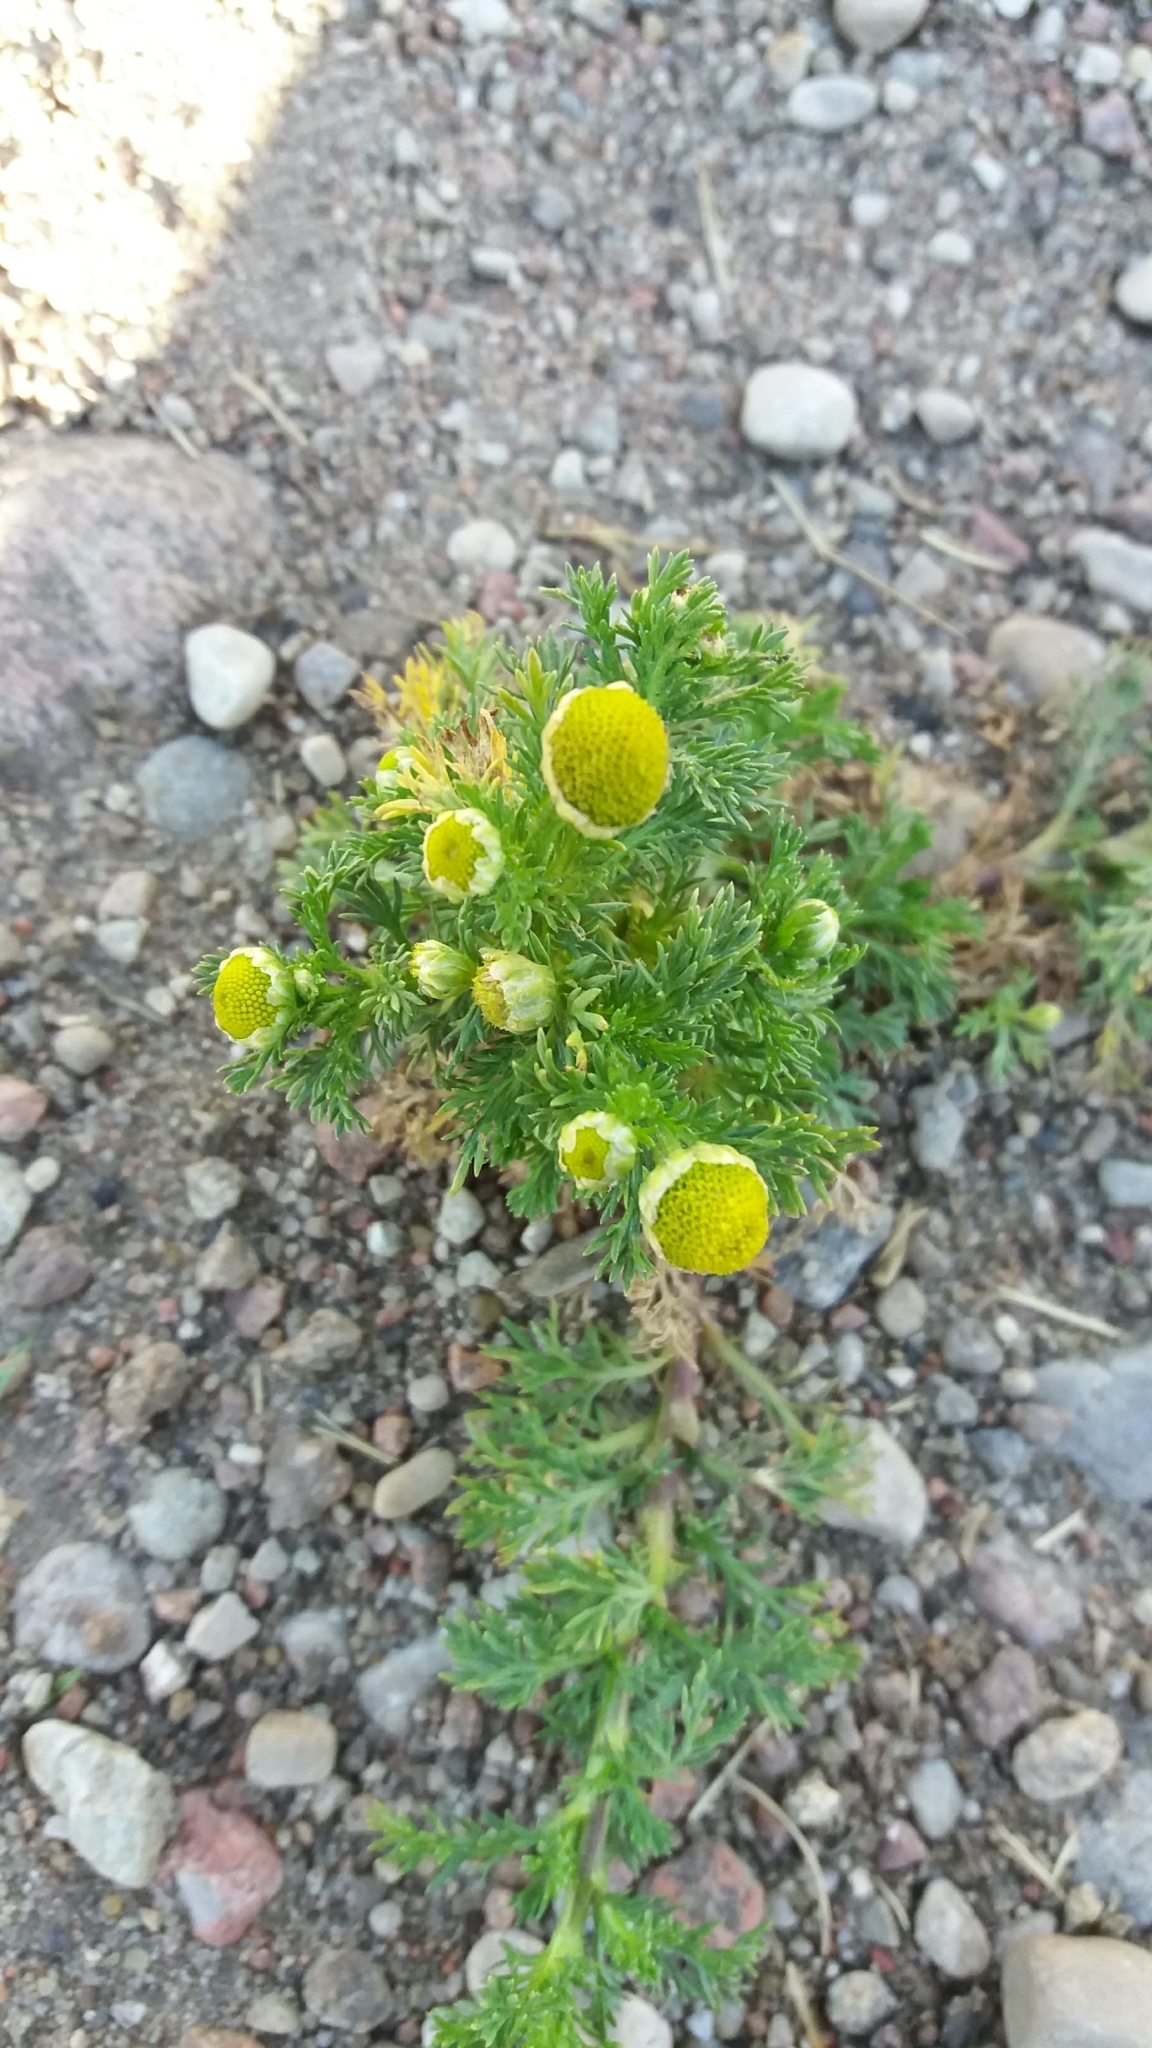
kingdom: Plantae
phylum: Tracheophyta
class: Magnoliopsida
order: Asterales
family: Asteraceae
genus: Matricaria
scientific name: Matricaria discoidea
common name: Disc mayweed
